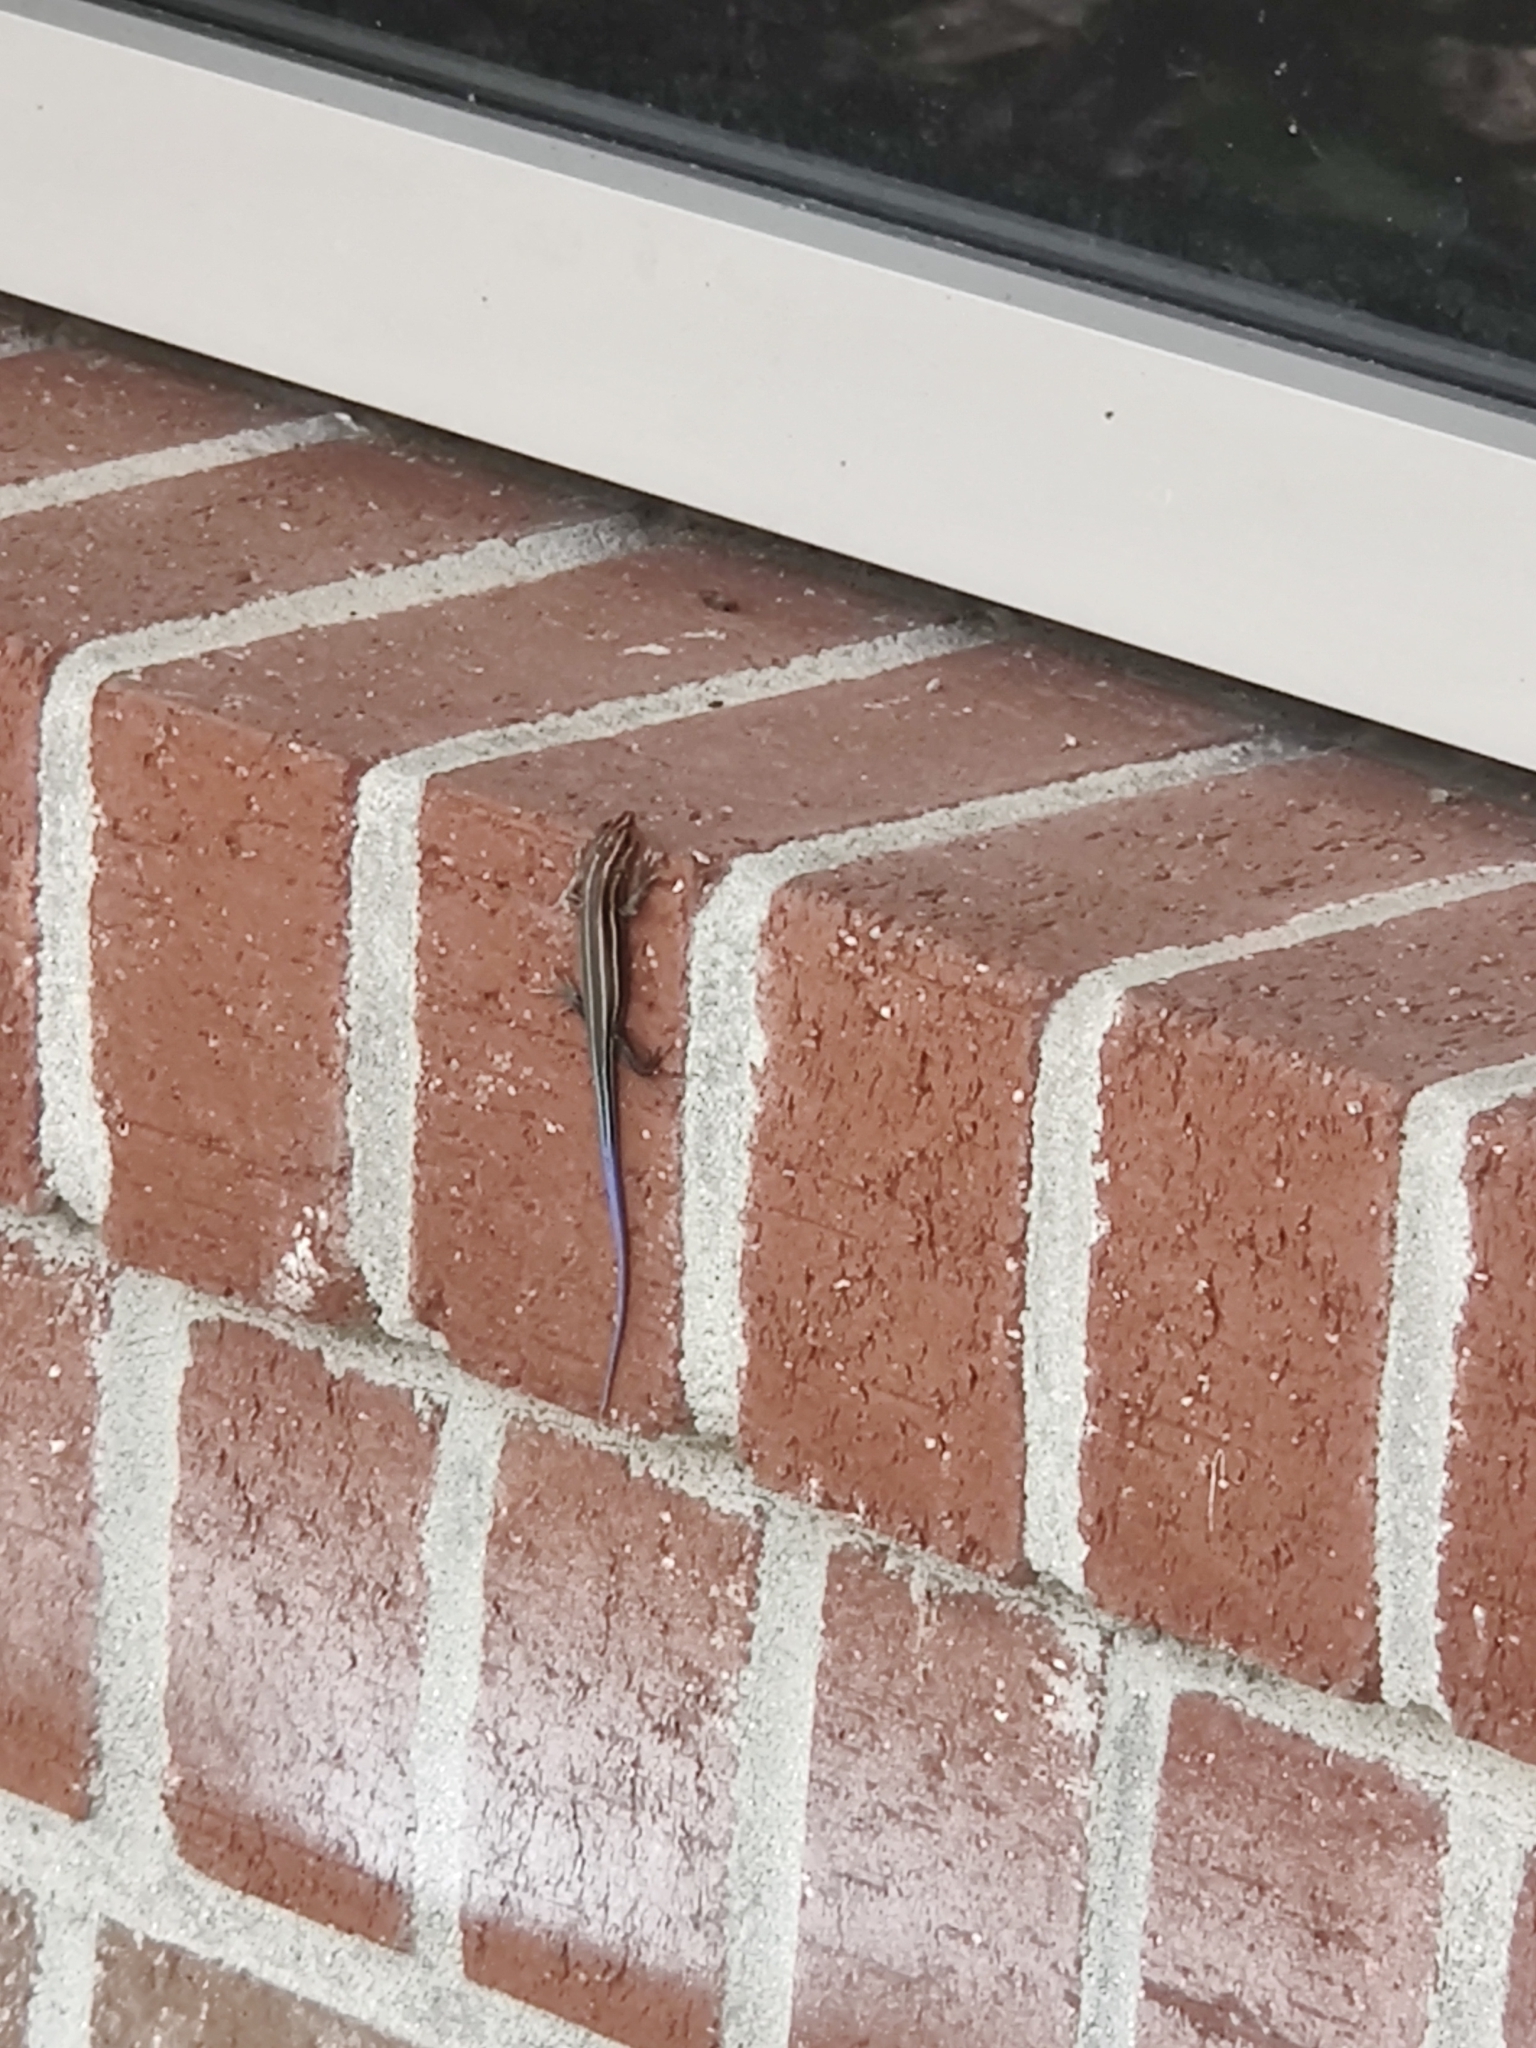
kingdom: Animalia
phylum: Chordata
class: Squamata
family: Scincidae
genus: Plestiodon
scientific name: Plestiodon
